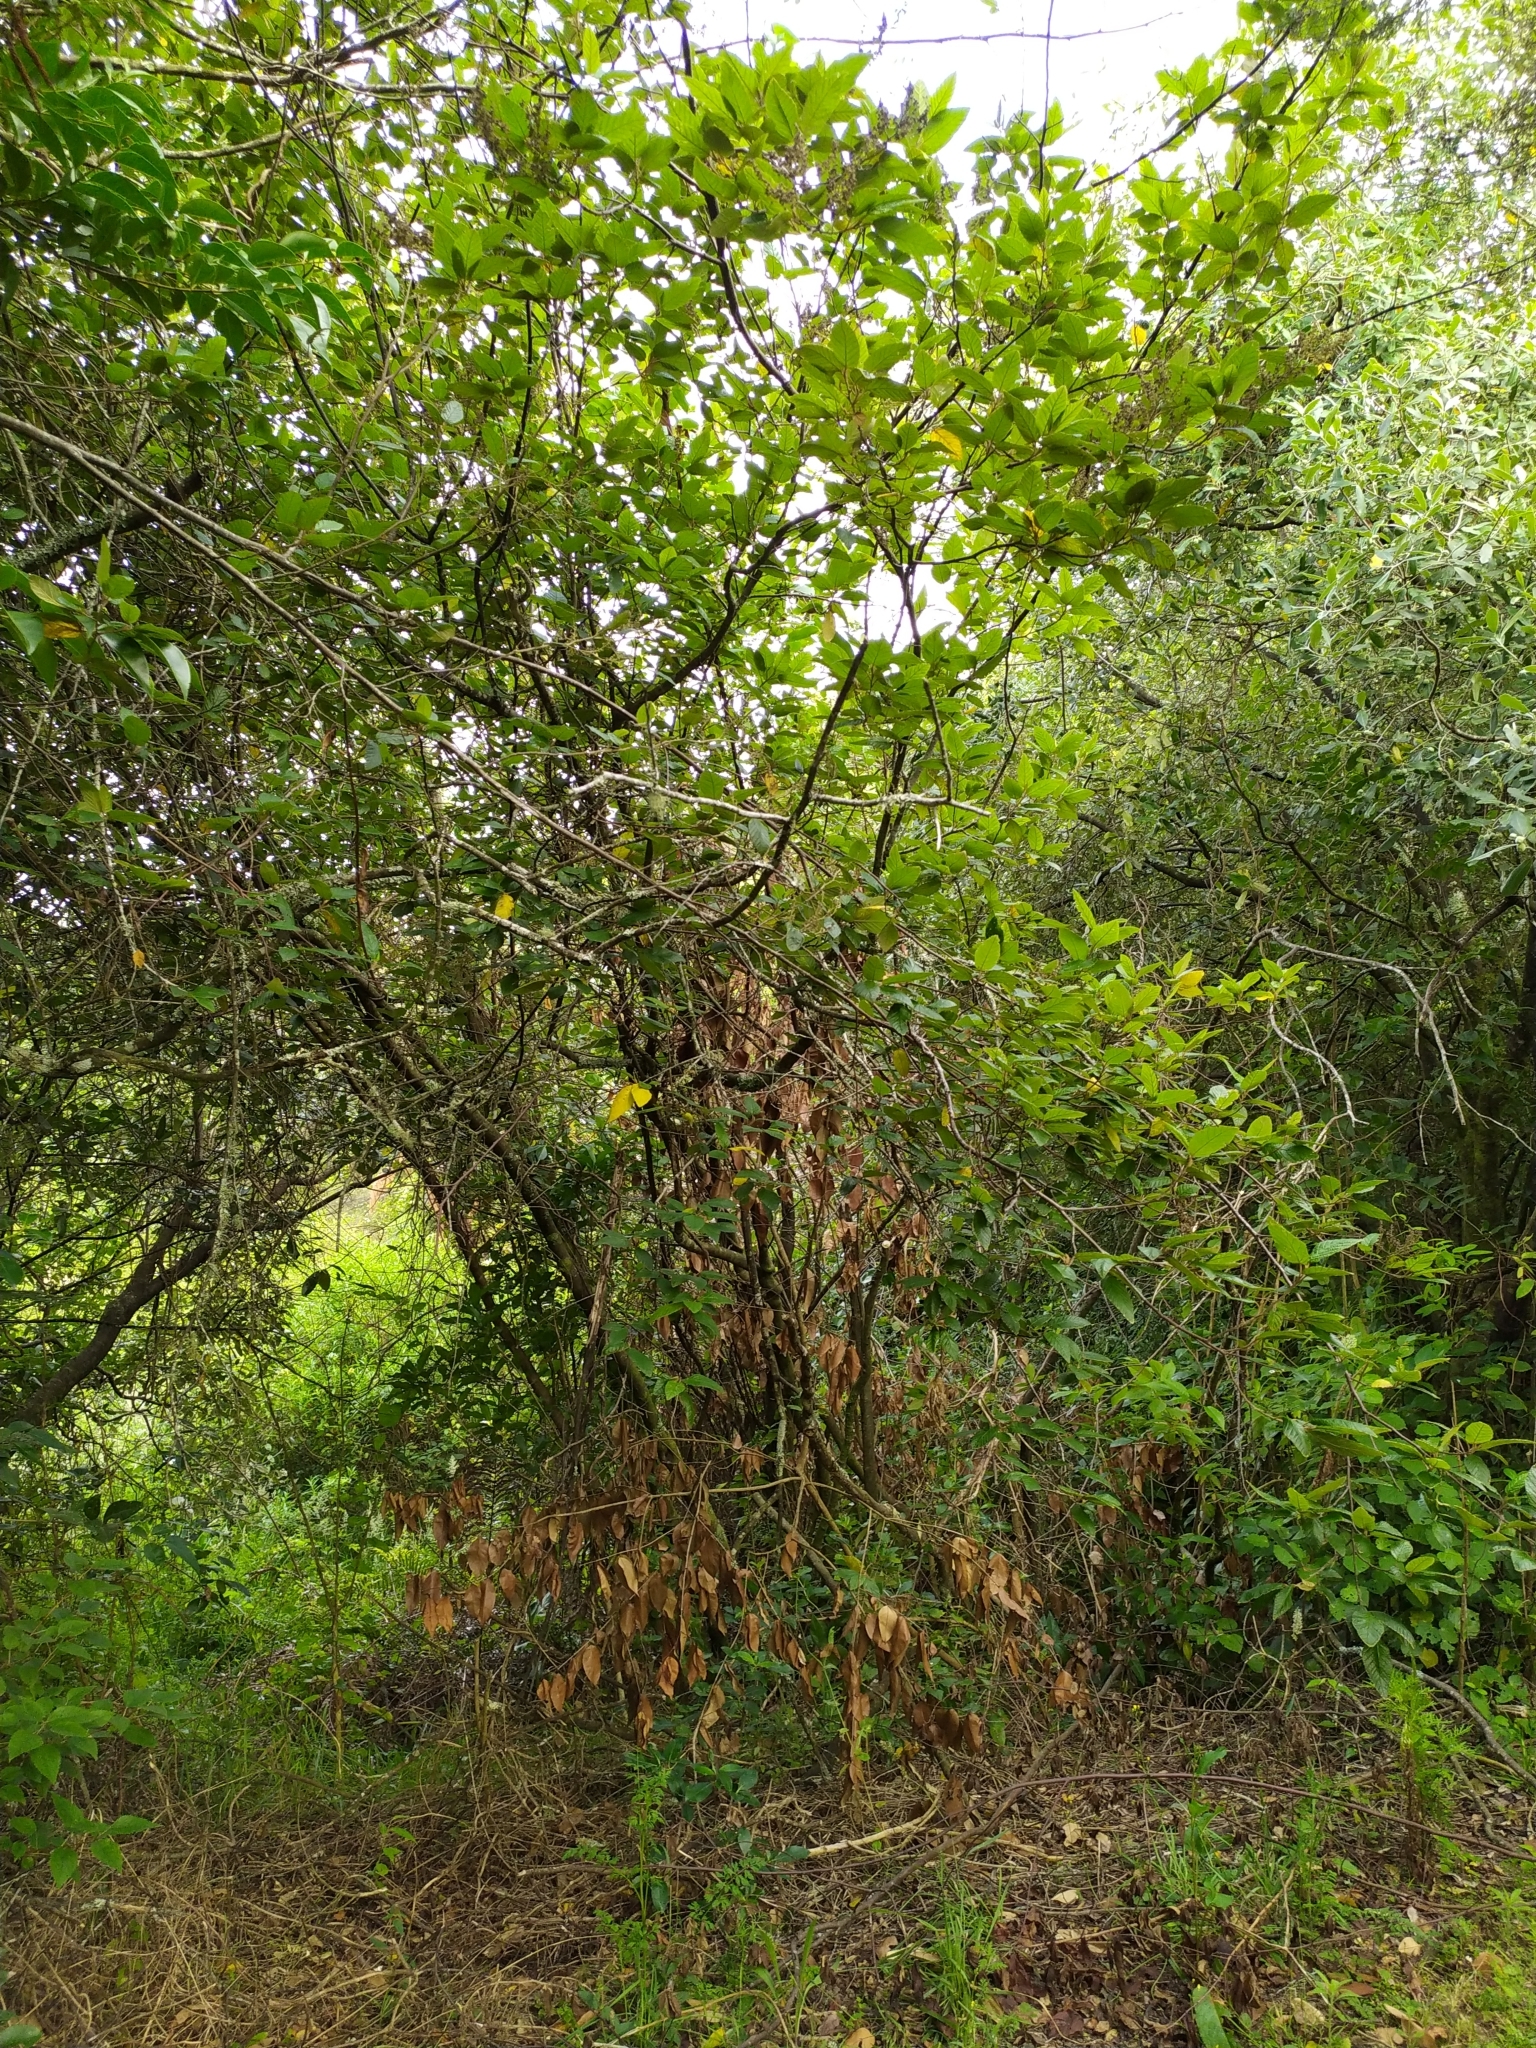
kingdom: Plantae
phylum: Tracheophyta
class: Magnoliopsida
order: Rosales
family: Rhamnaceae
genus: Pomaderris
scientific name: Pomaderris aspera
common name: Hazel pomaderris
